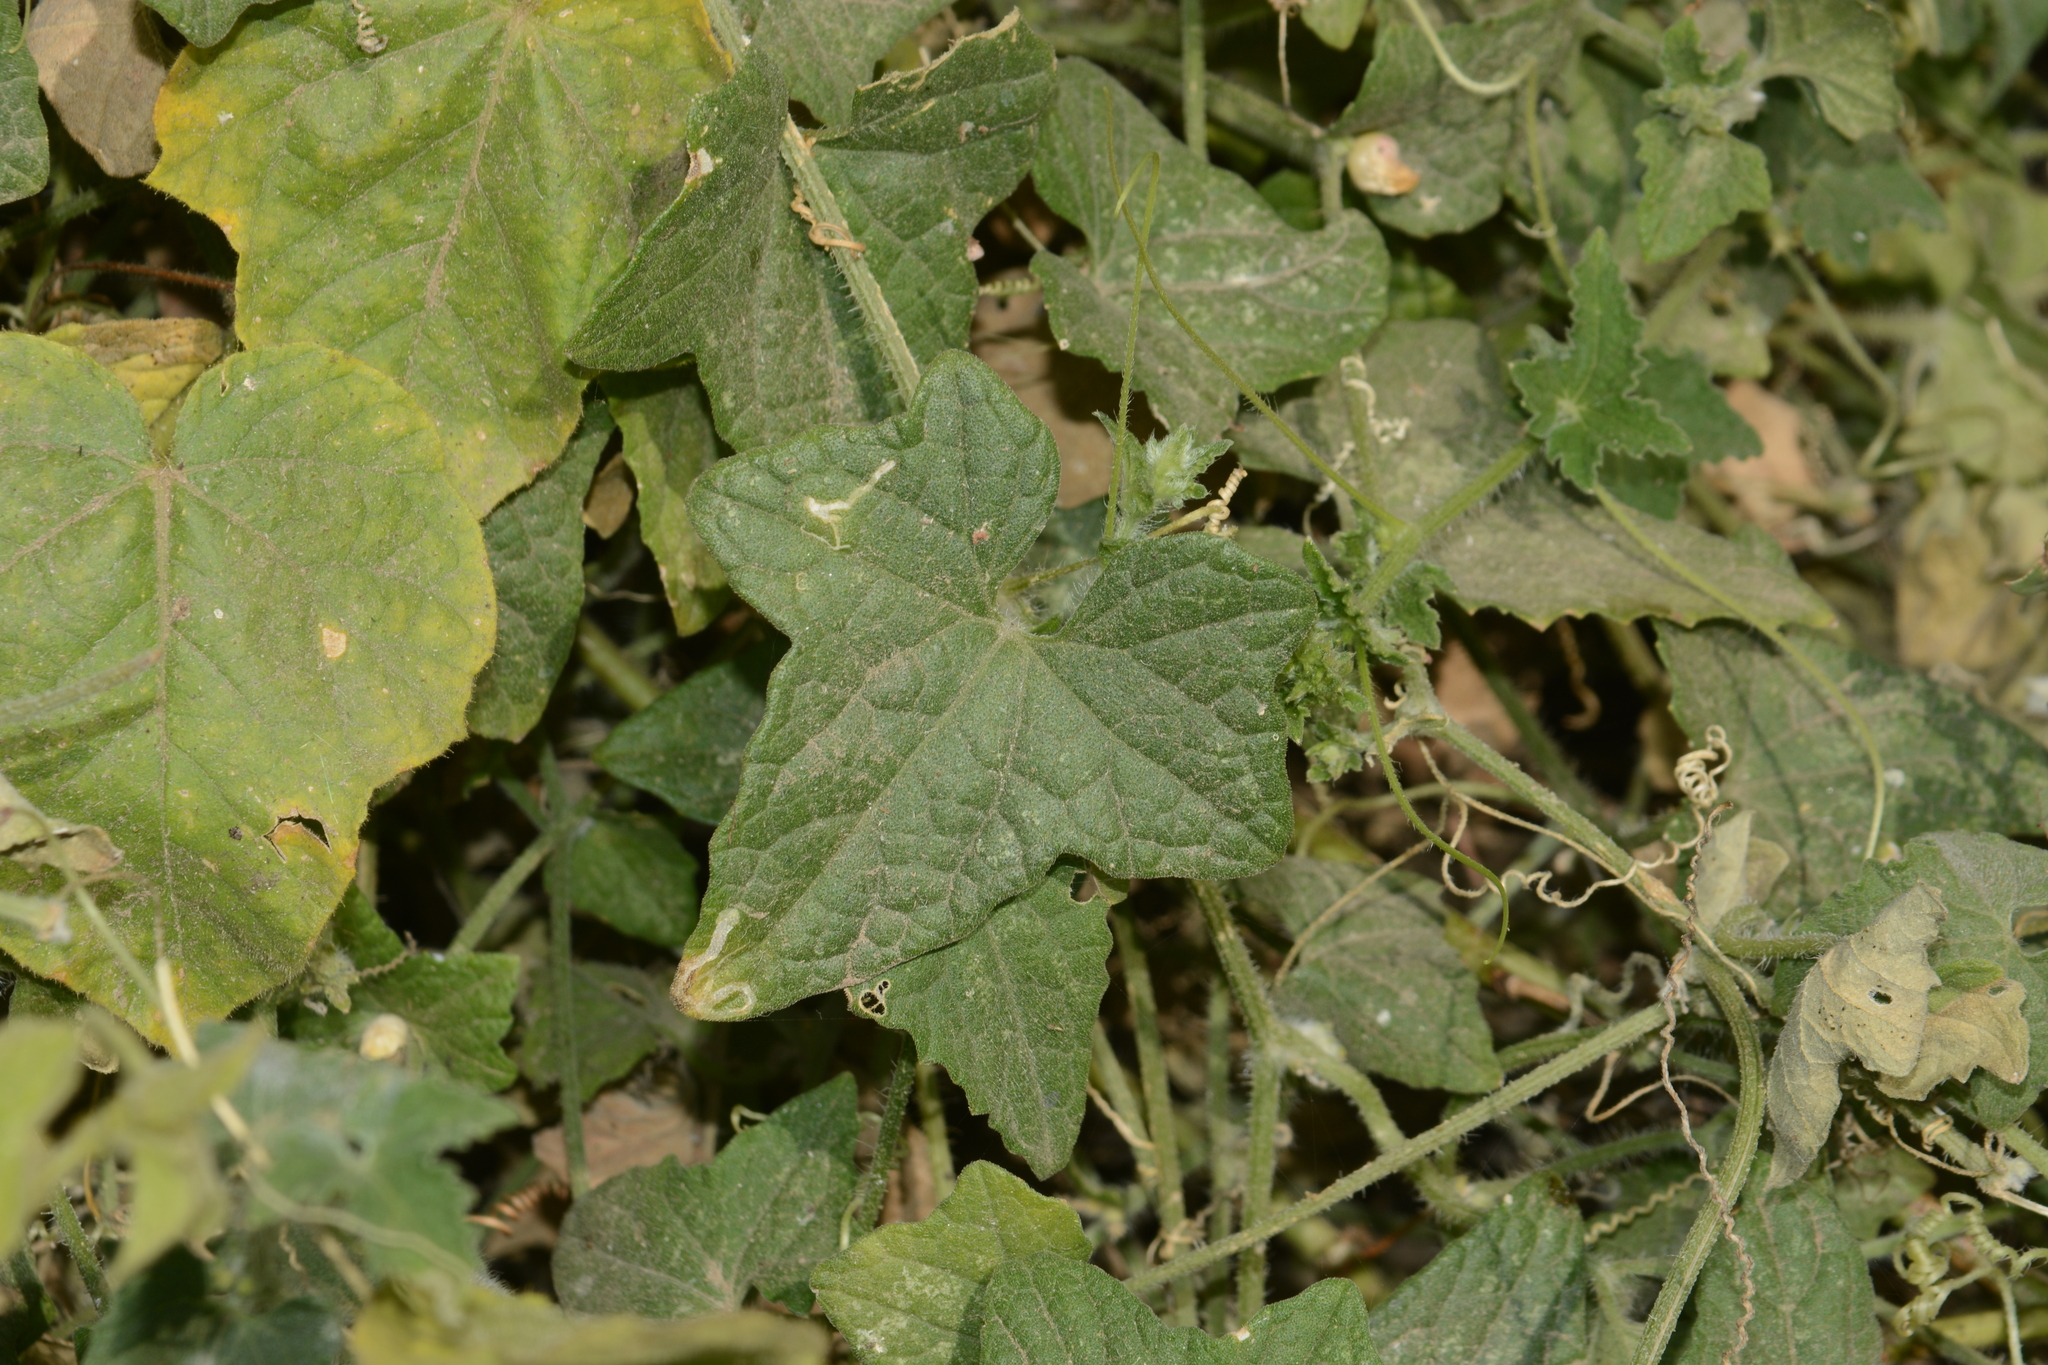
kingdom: Plantae
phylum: Tracheophyta
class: Magnoliopsida
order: Malpighiales
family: Passifloraceae
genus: Passiflora
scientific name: Passiflora foetida
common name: Fetid passionflower
